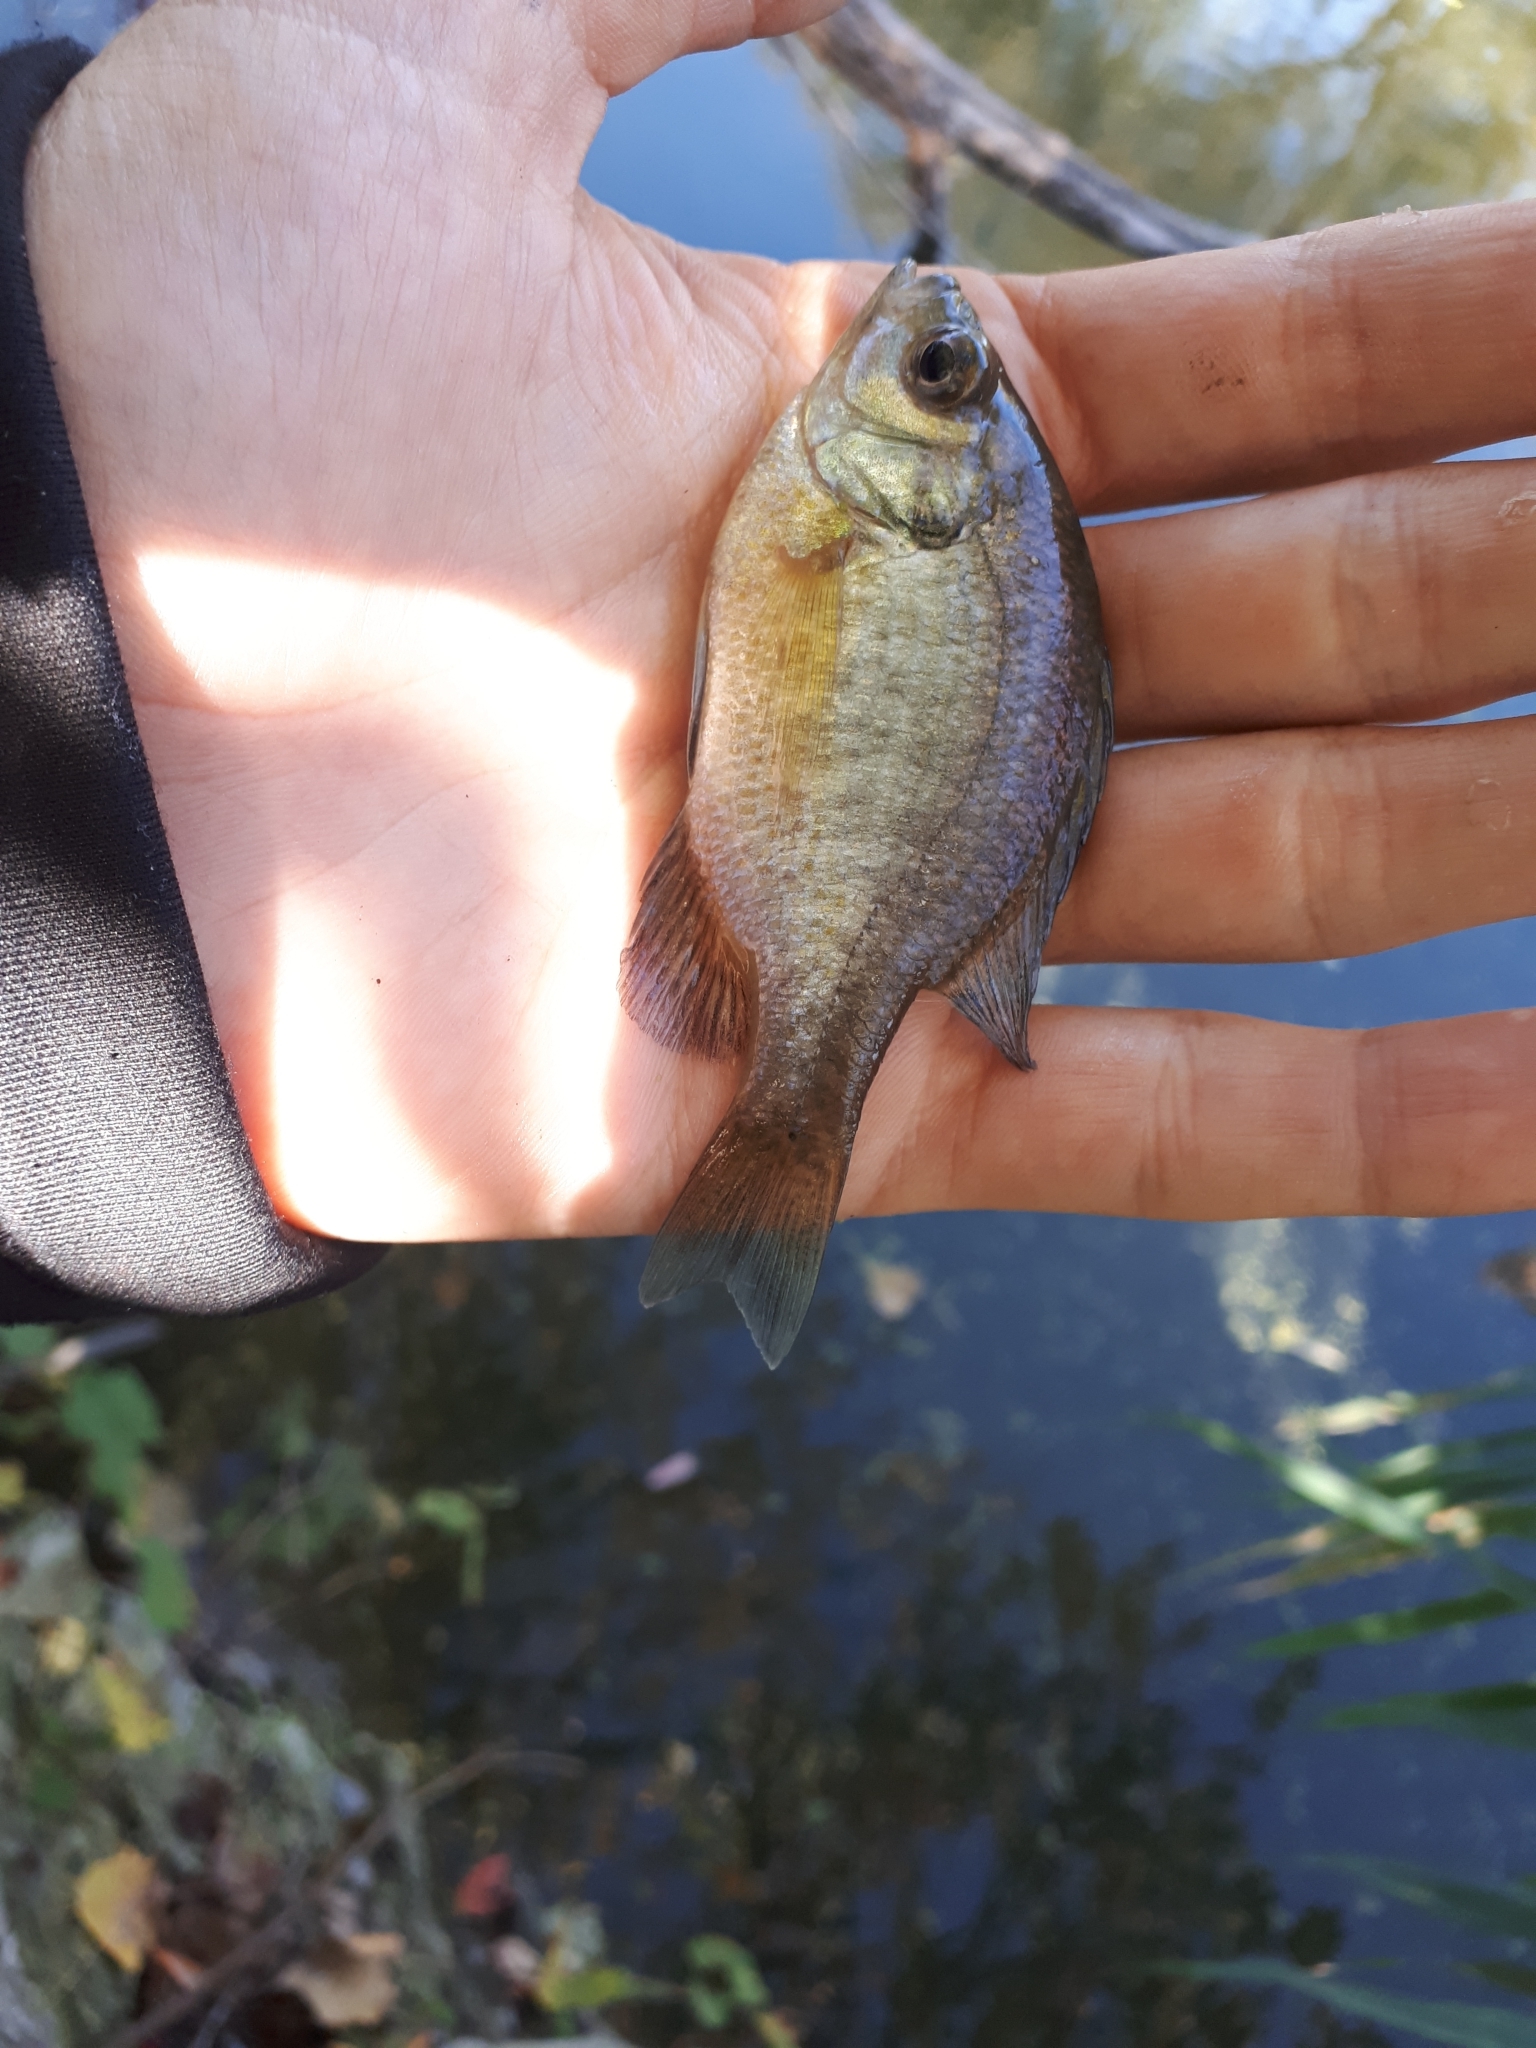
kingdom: Animalia
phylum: Chordata
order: Perciformes
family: Centrarchidae
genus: Lepomis
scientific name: Lepomis macrochirus
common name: Bluegill
